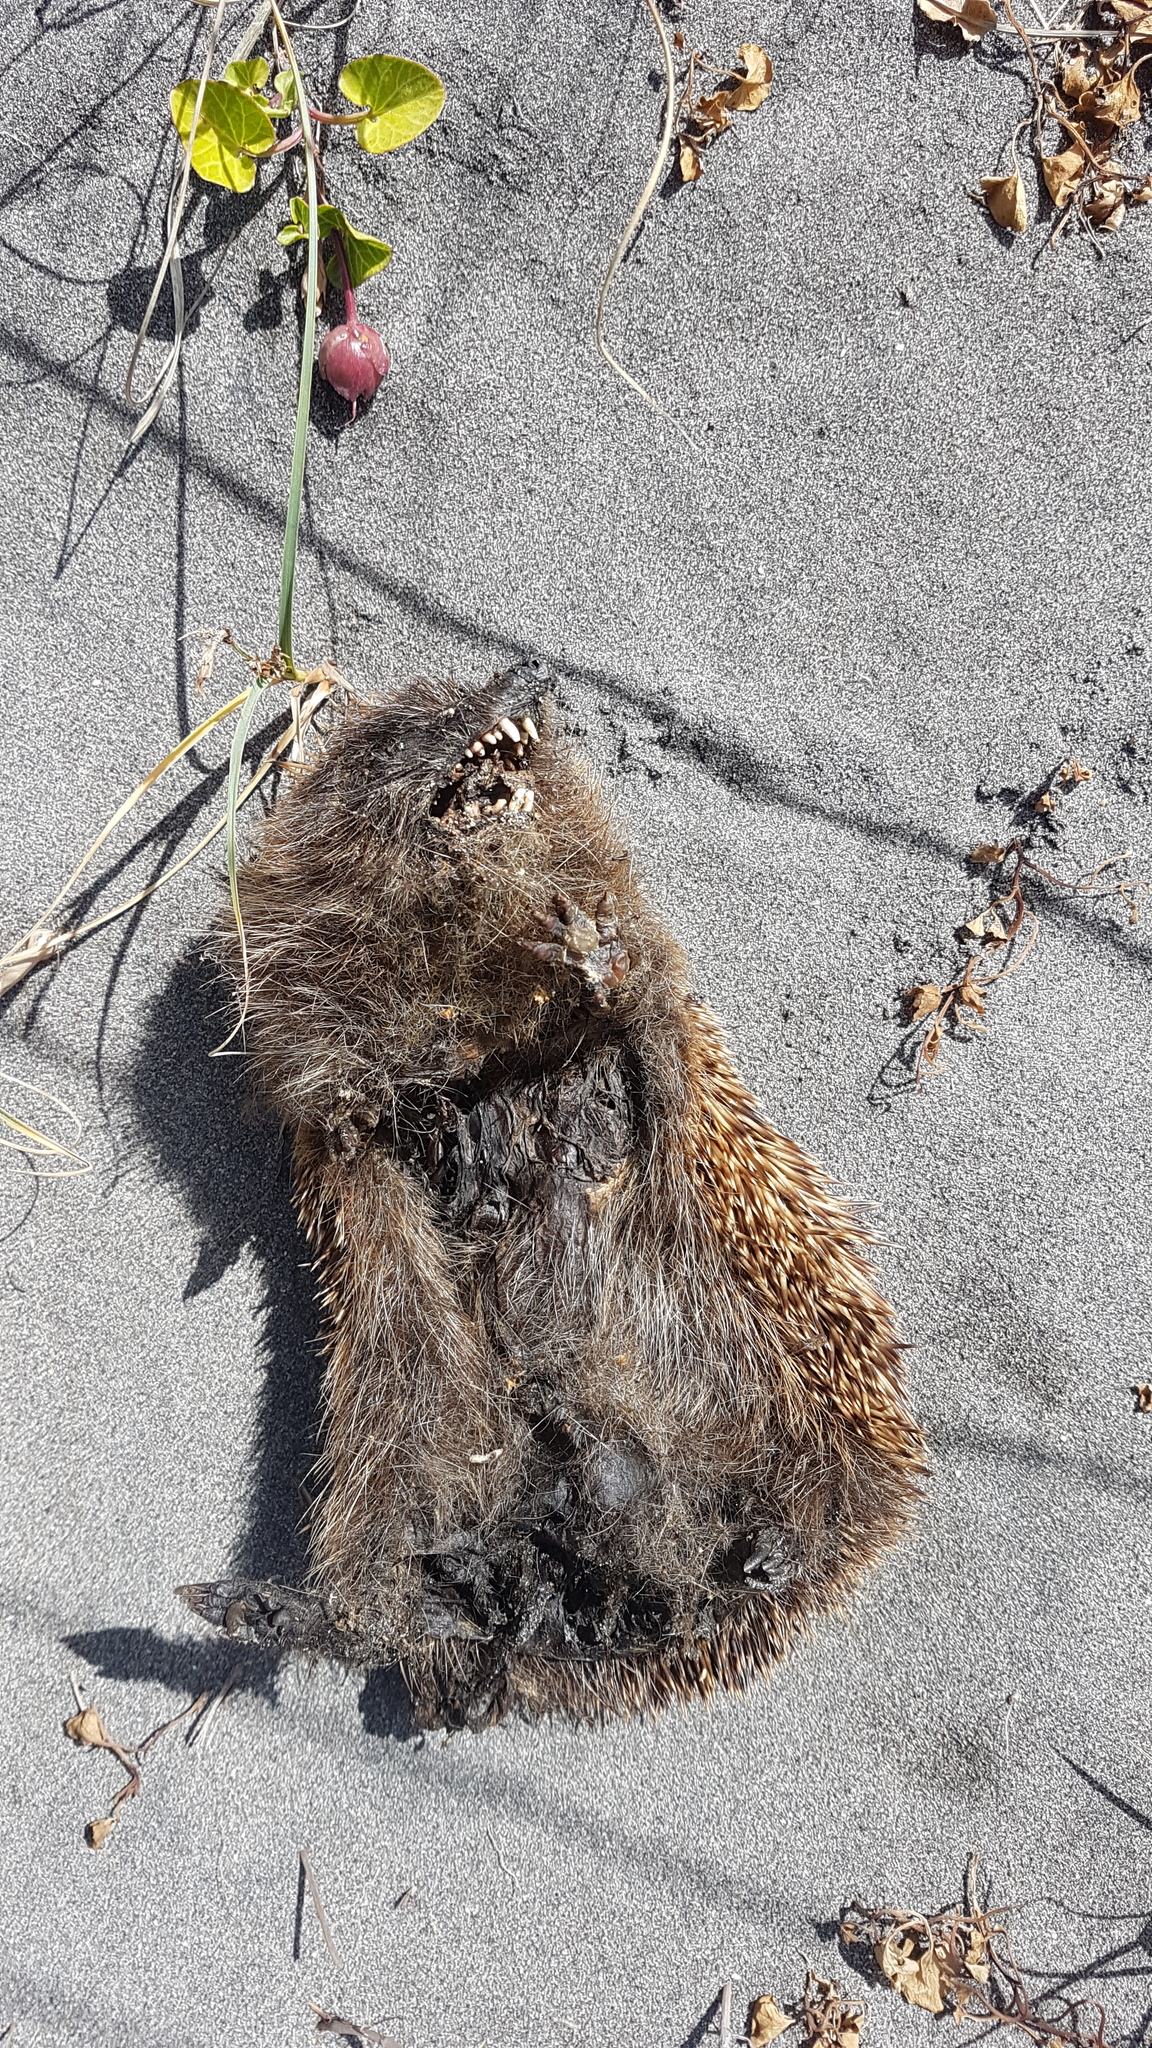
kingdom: Animalia
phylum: Chordata
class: Mammalia
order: Erinaceomorpha
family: Erinaceidae
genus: Erinaceus
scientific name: Erinaceus europaeus
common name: West european hedgehog
